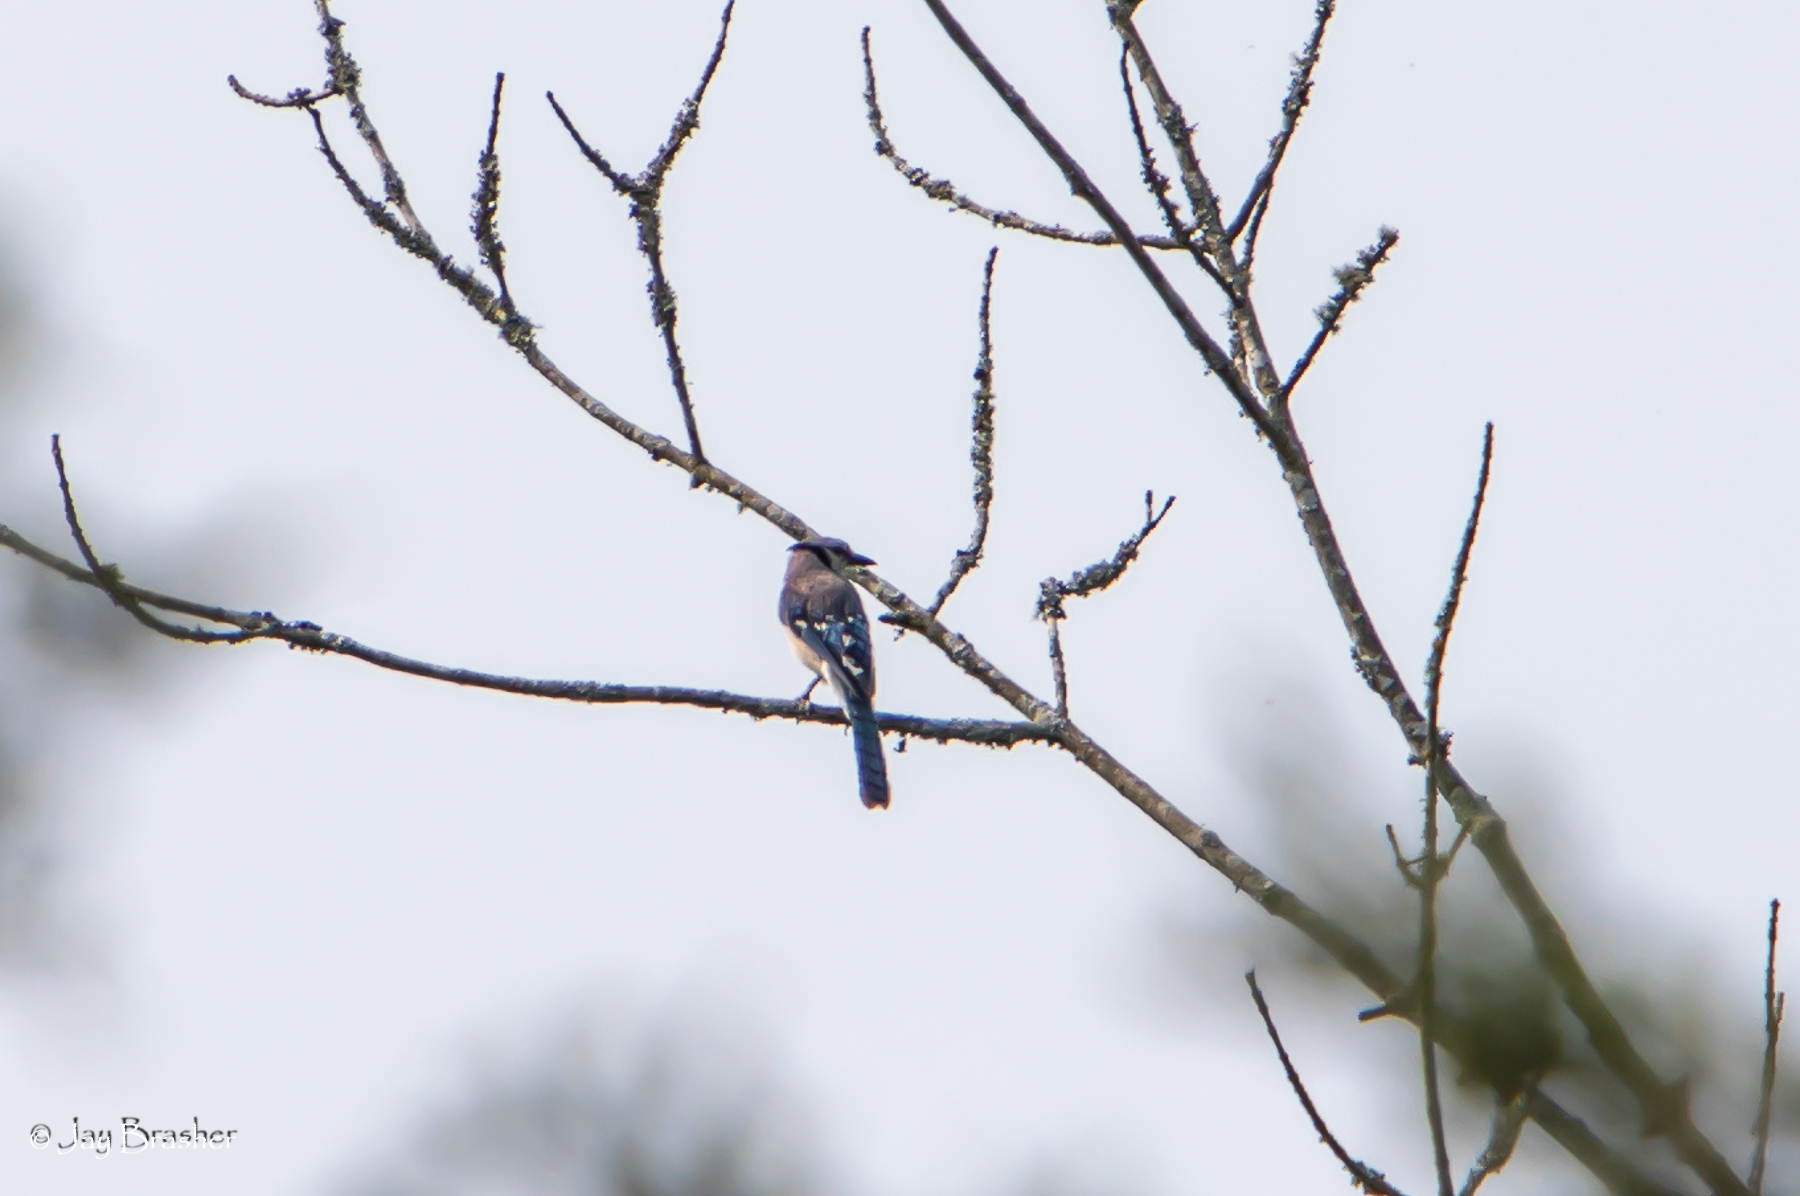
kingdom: Animalia
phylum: Chordata
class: Aves
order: Passeriformes
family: Corvidae
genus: Cyanocitta
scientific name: Cyanocitta cristata
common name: Blue jay
